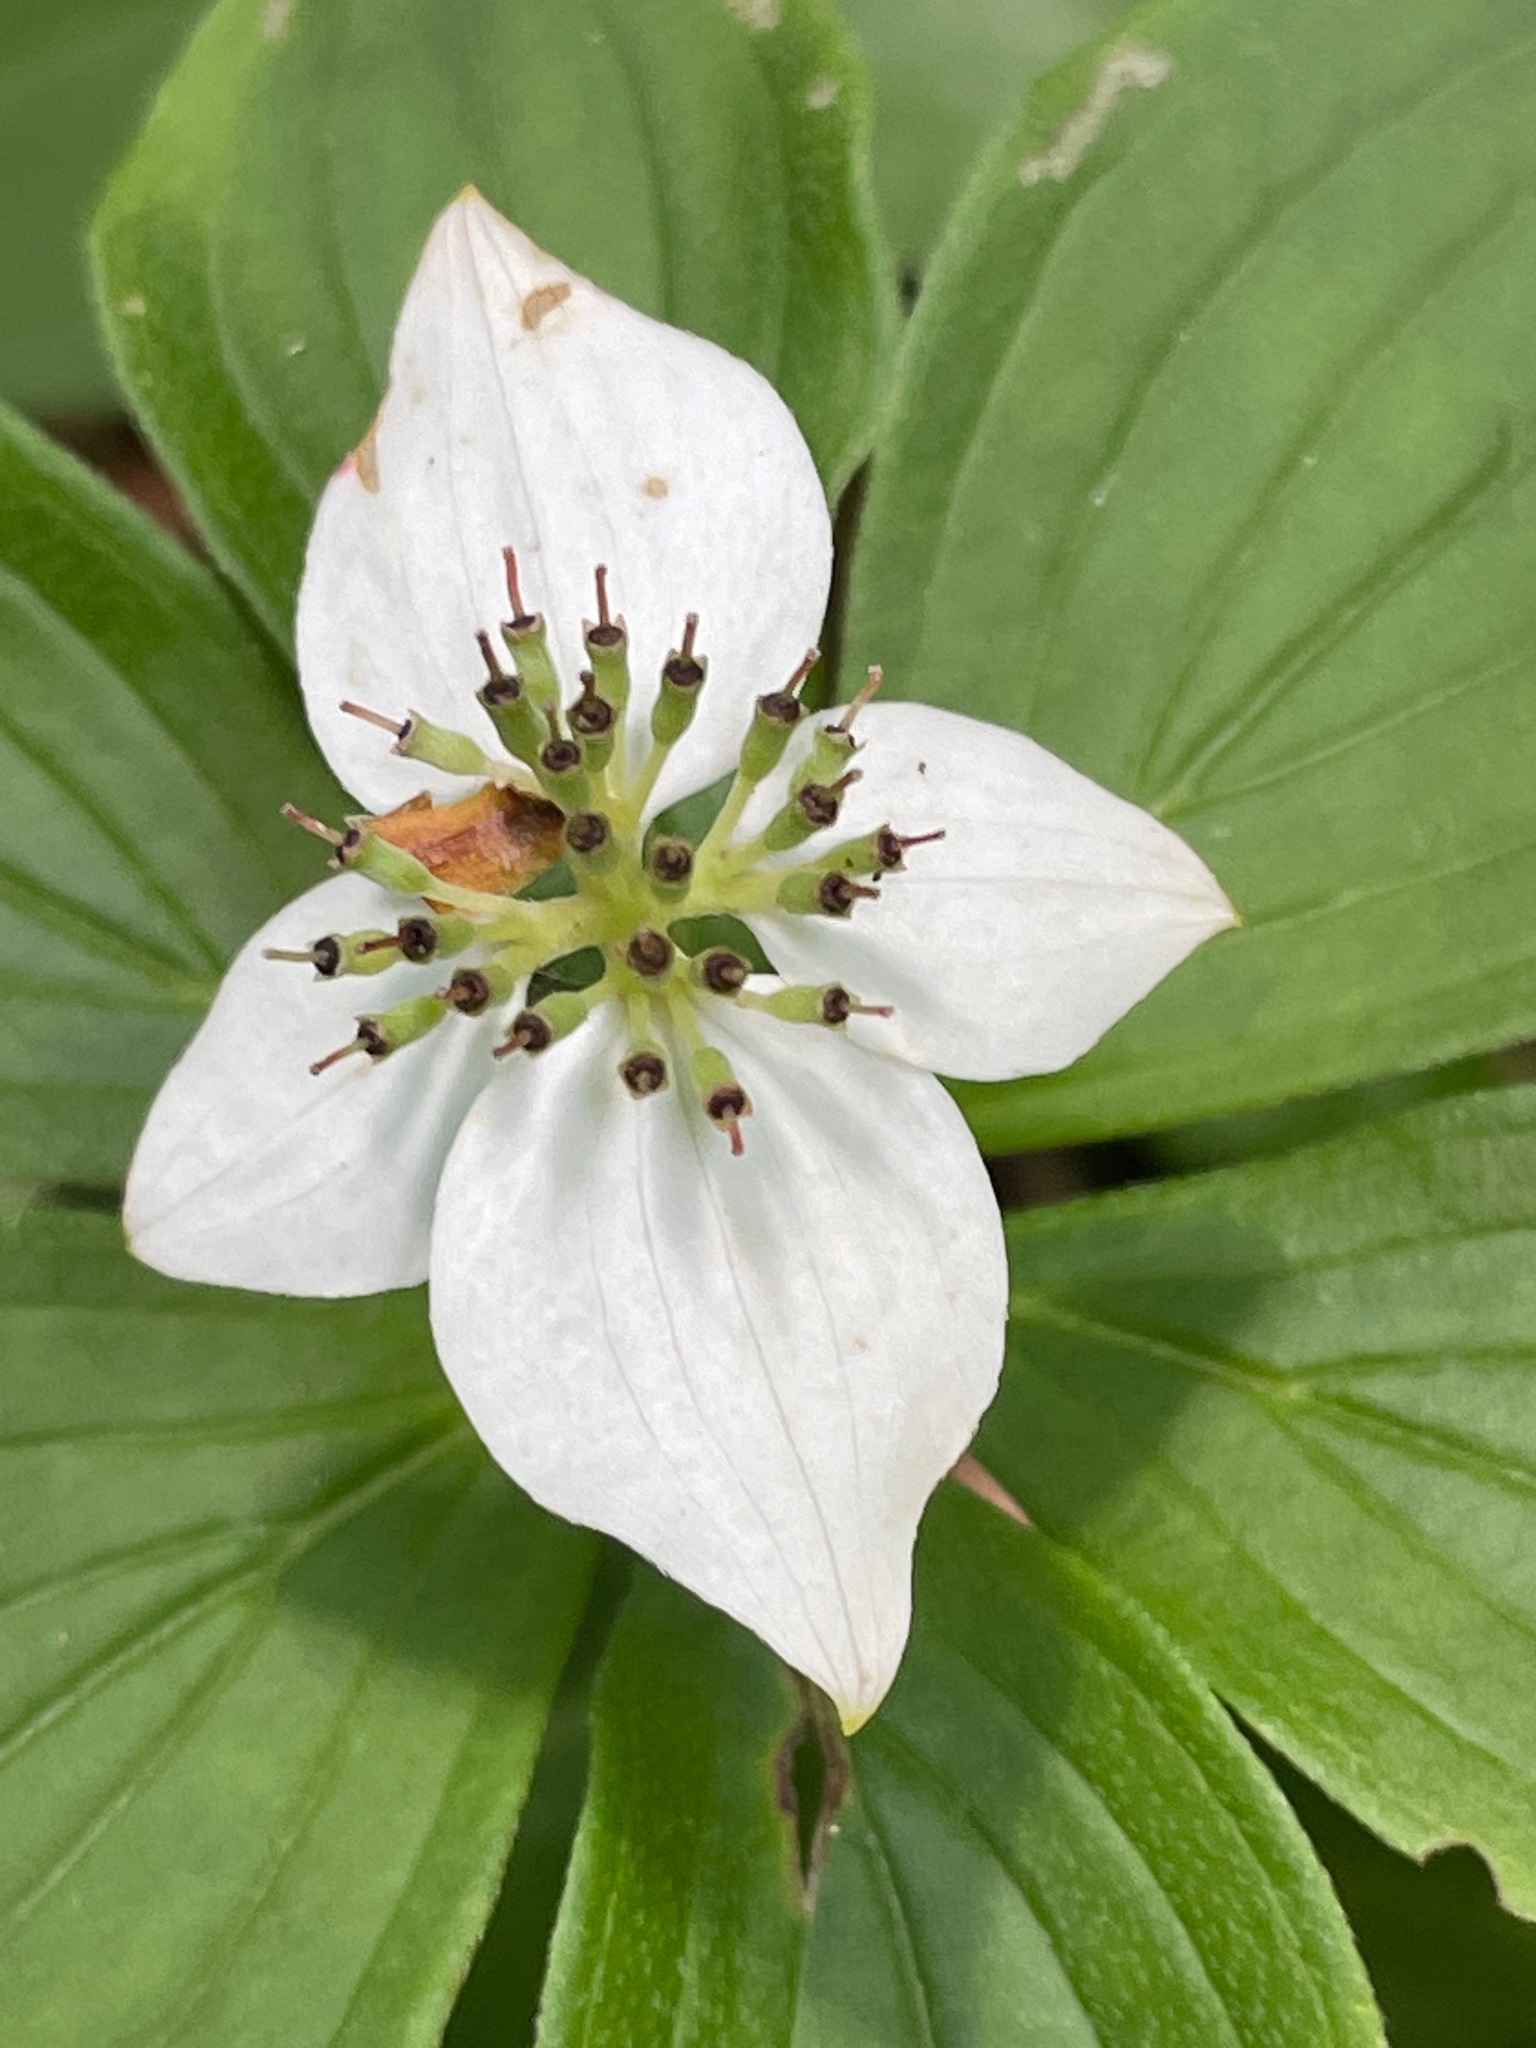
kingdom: Plantae
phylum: Tracheophyta
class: Magnoliopsida
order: Cornales
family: Cornaceae
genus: Cornus
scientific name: Cornus canadensis
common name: Creeping dogwood
